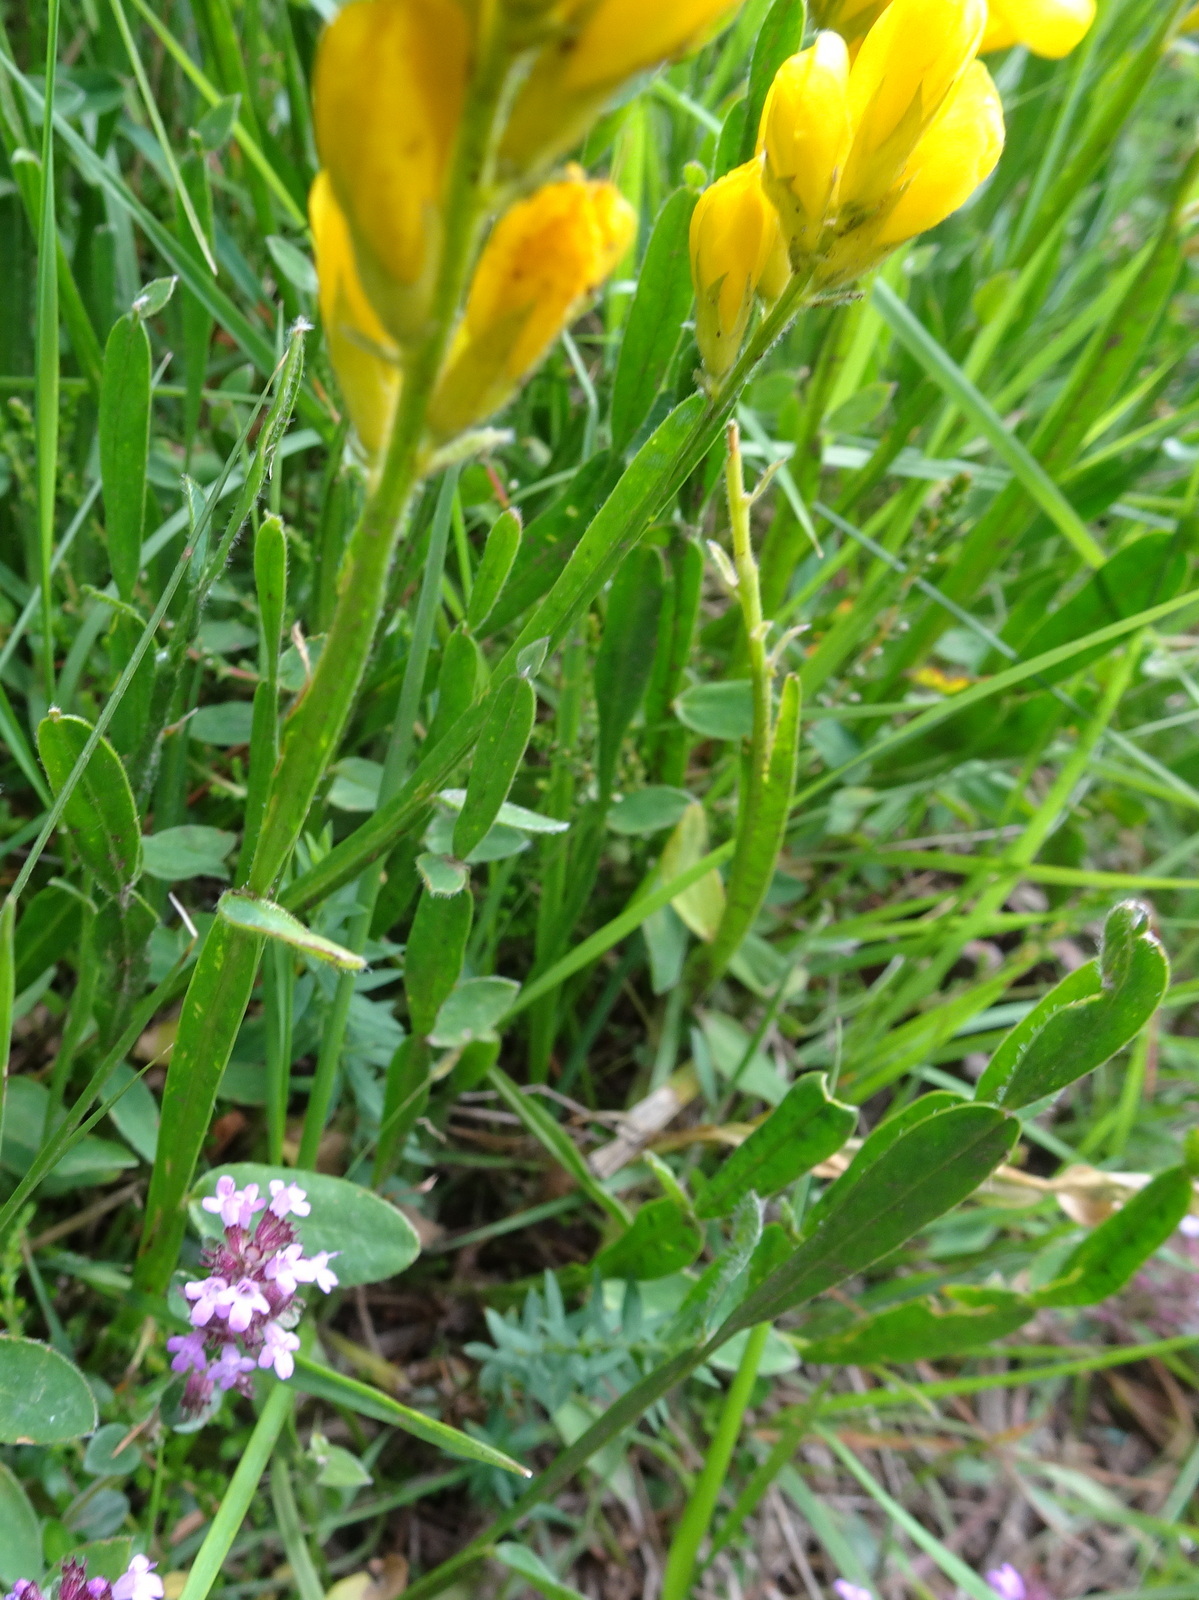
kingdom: Plantae
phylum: Tracheophyta
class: Magnoliopsida
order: Fabales
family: Fabaceae
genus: Genista
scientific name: Genista sagittalis
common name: Winged greenweed
